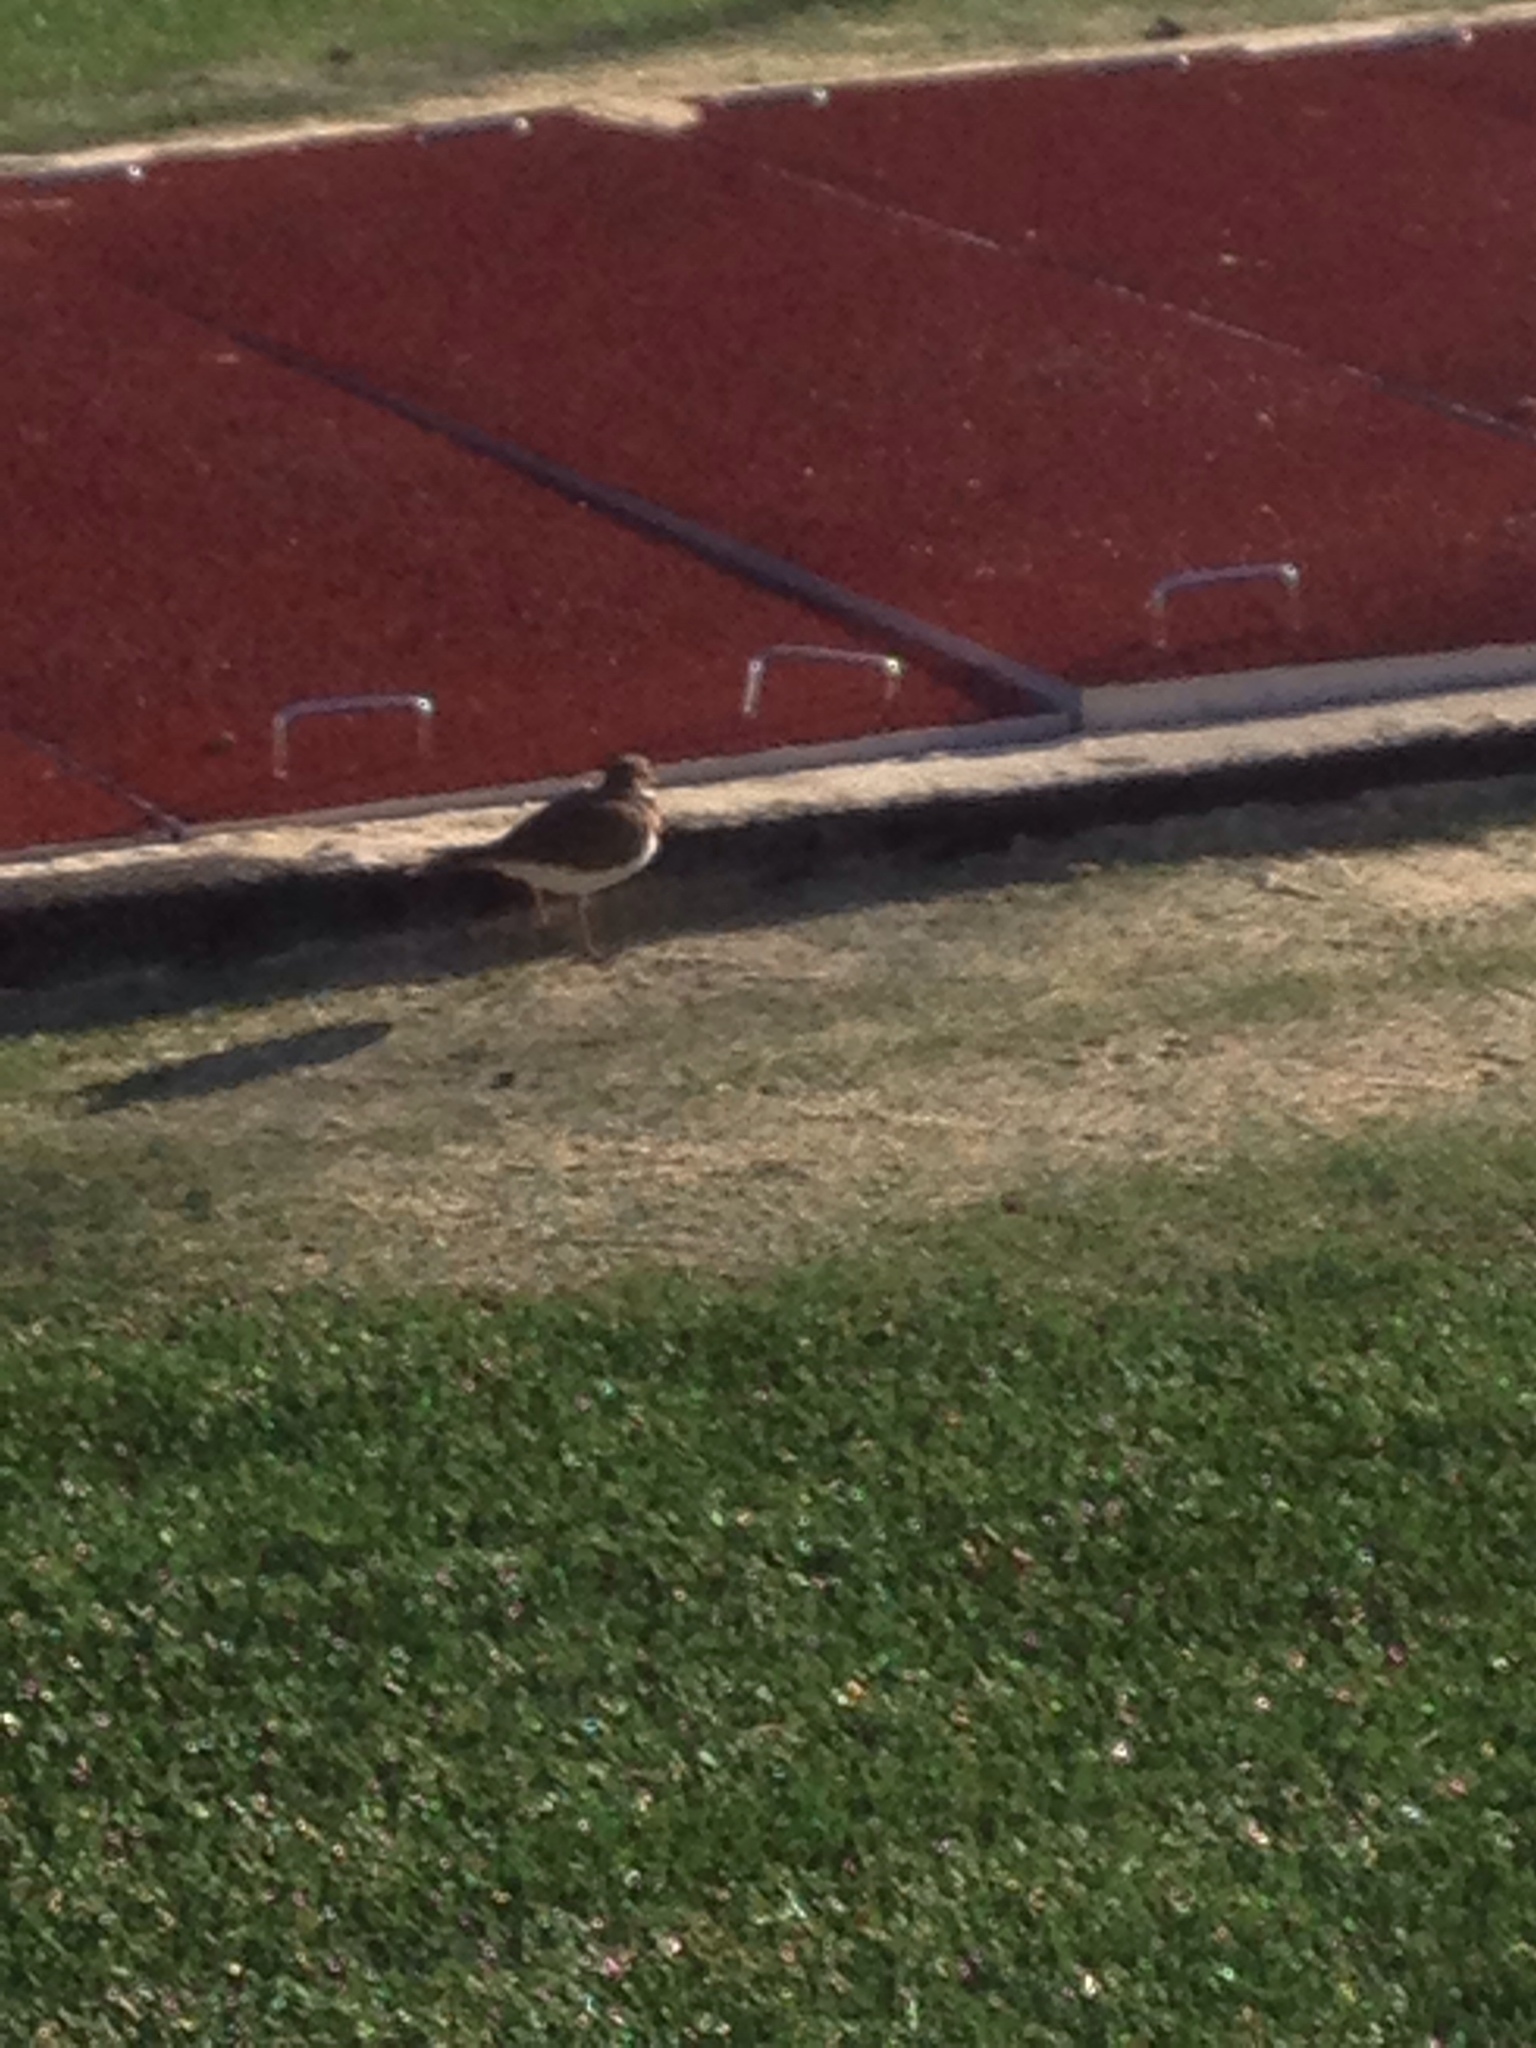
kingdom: Animalia
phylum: Chordata
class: Aves
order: Charadriiformes
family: Charadriidae
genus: Charadrius
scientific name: Charadrius vociferus
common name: Killdeer
